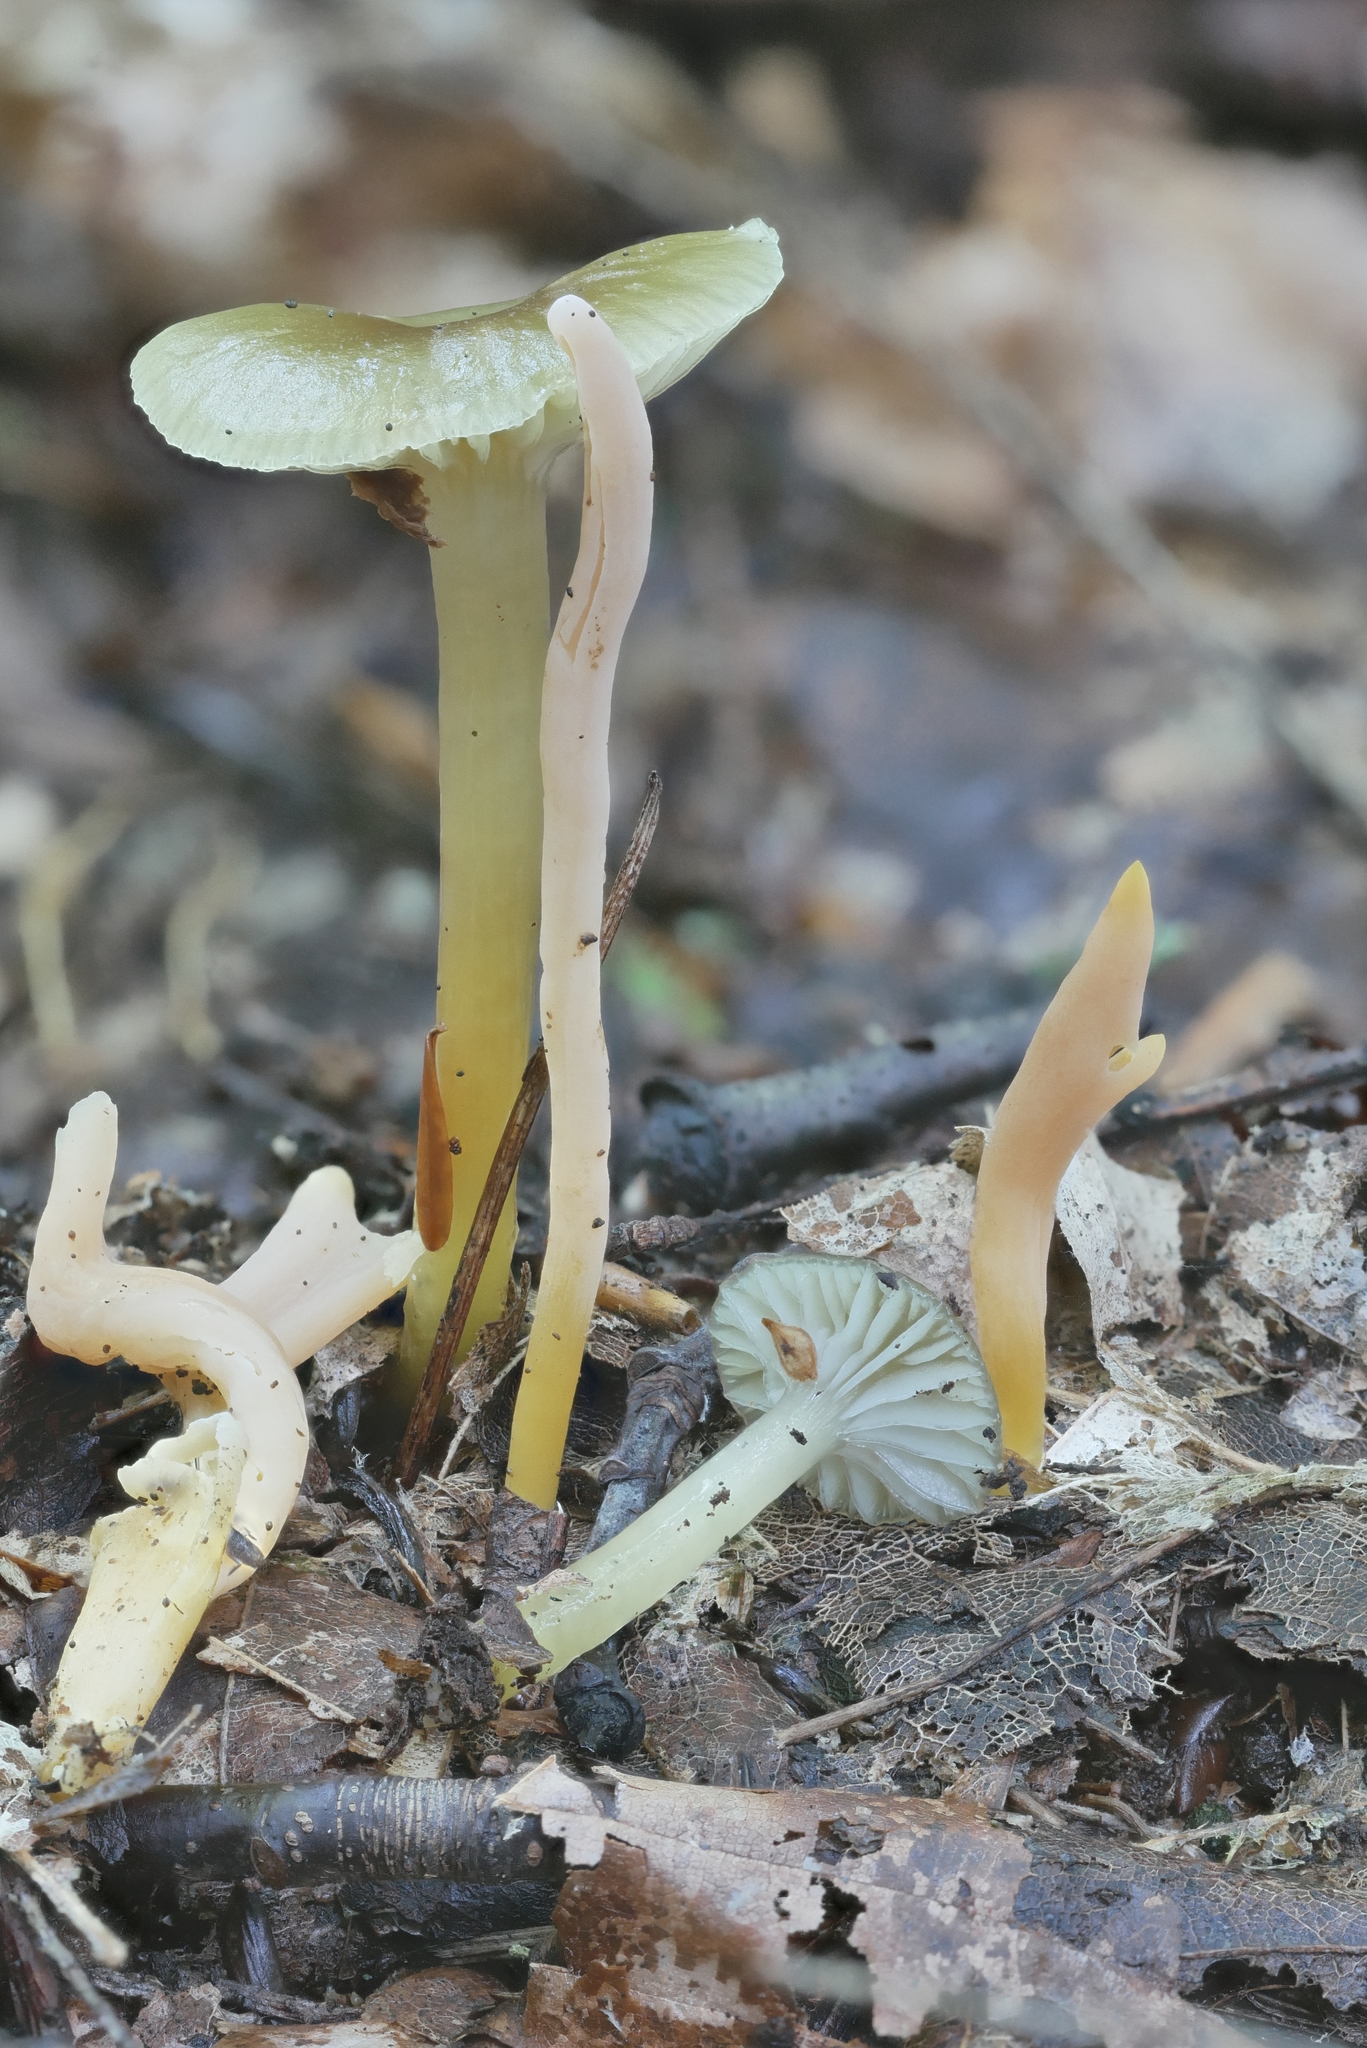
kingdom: Fungi
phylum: Basidiomycota
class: Agaricomycetes
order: Agaricales
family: Clavariaceae
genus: Clavulinopsis
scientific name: Clavulinopsis appalachiensis
